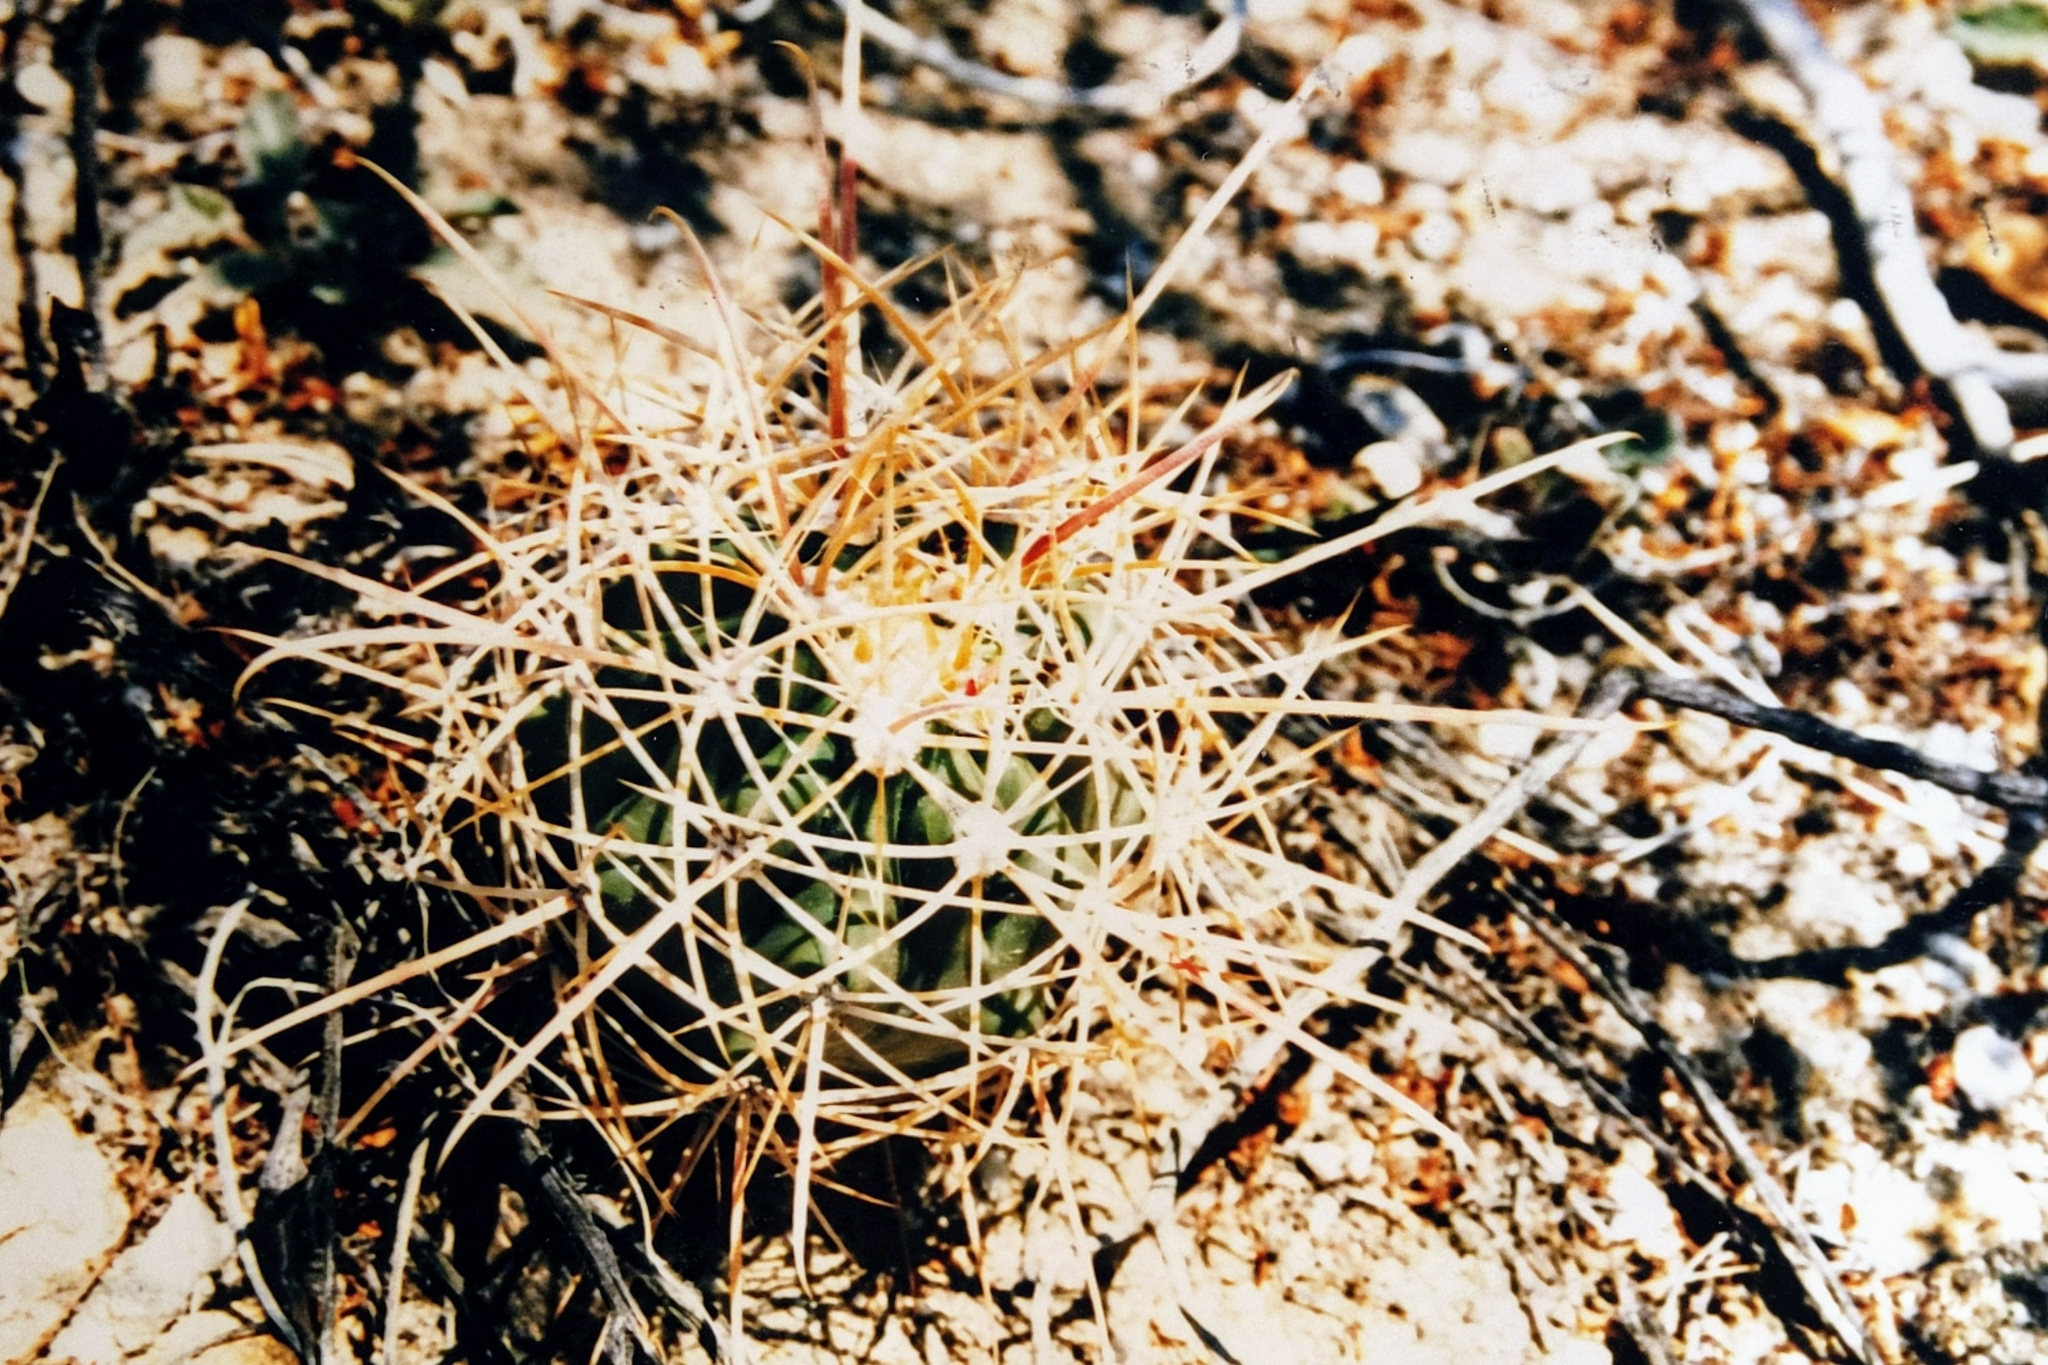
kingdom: Plantae
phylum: Tracheophyta
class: Magnoliopsida
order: Caryophyllales
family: Cactaceae
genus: Ferocactus
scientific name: Ferocactus cylindraceus
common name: California barrel cactus
